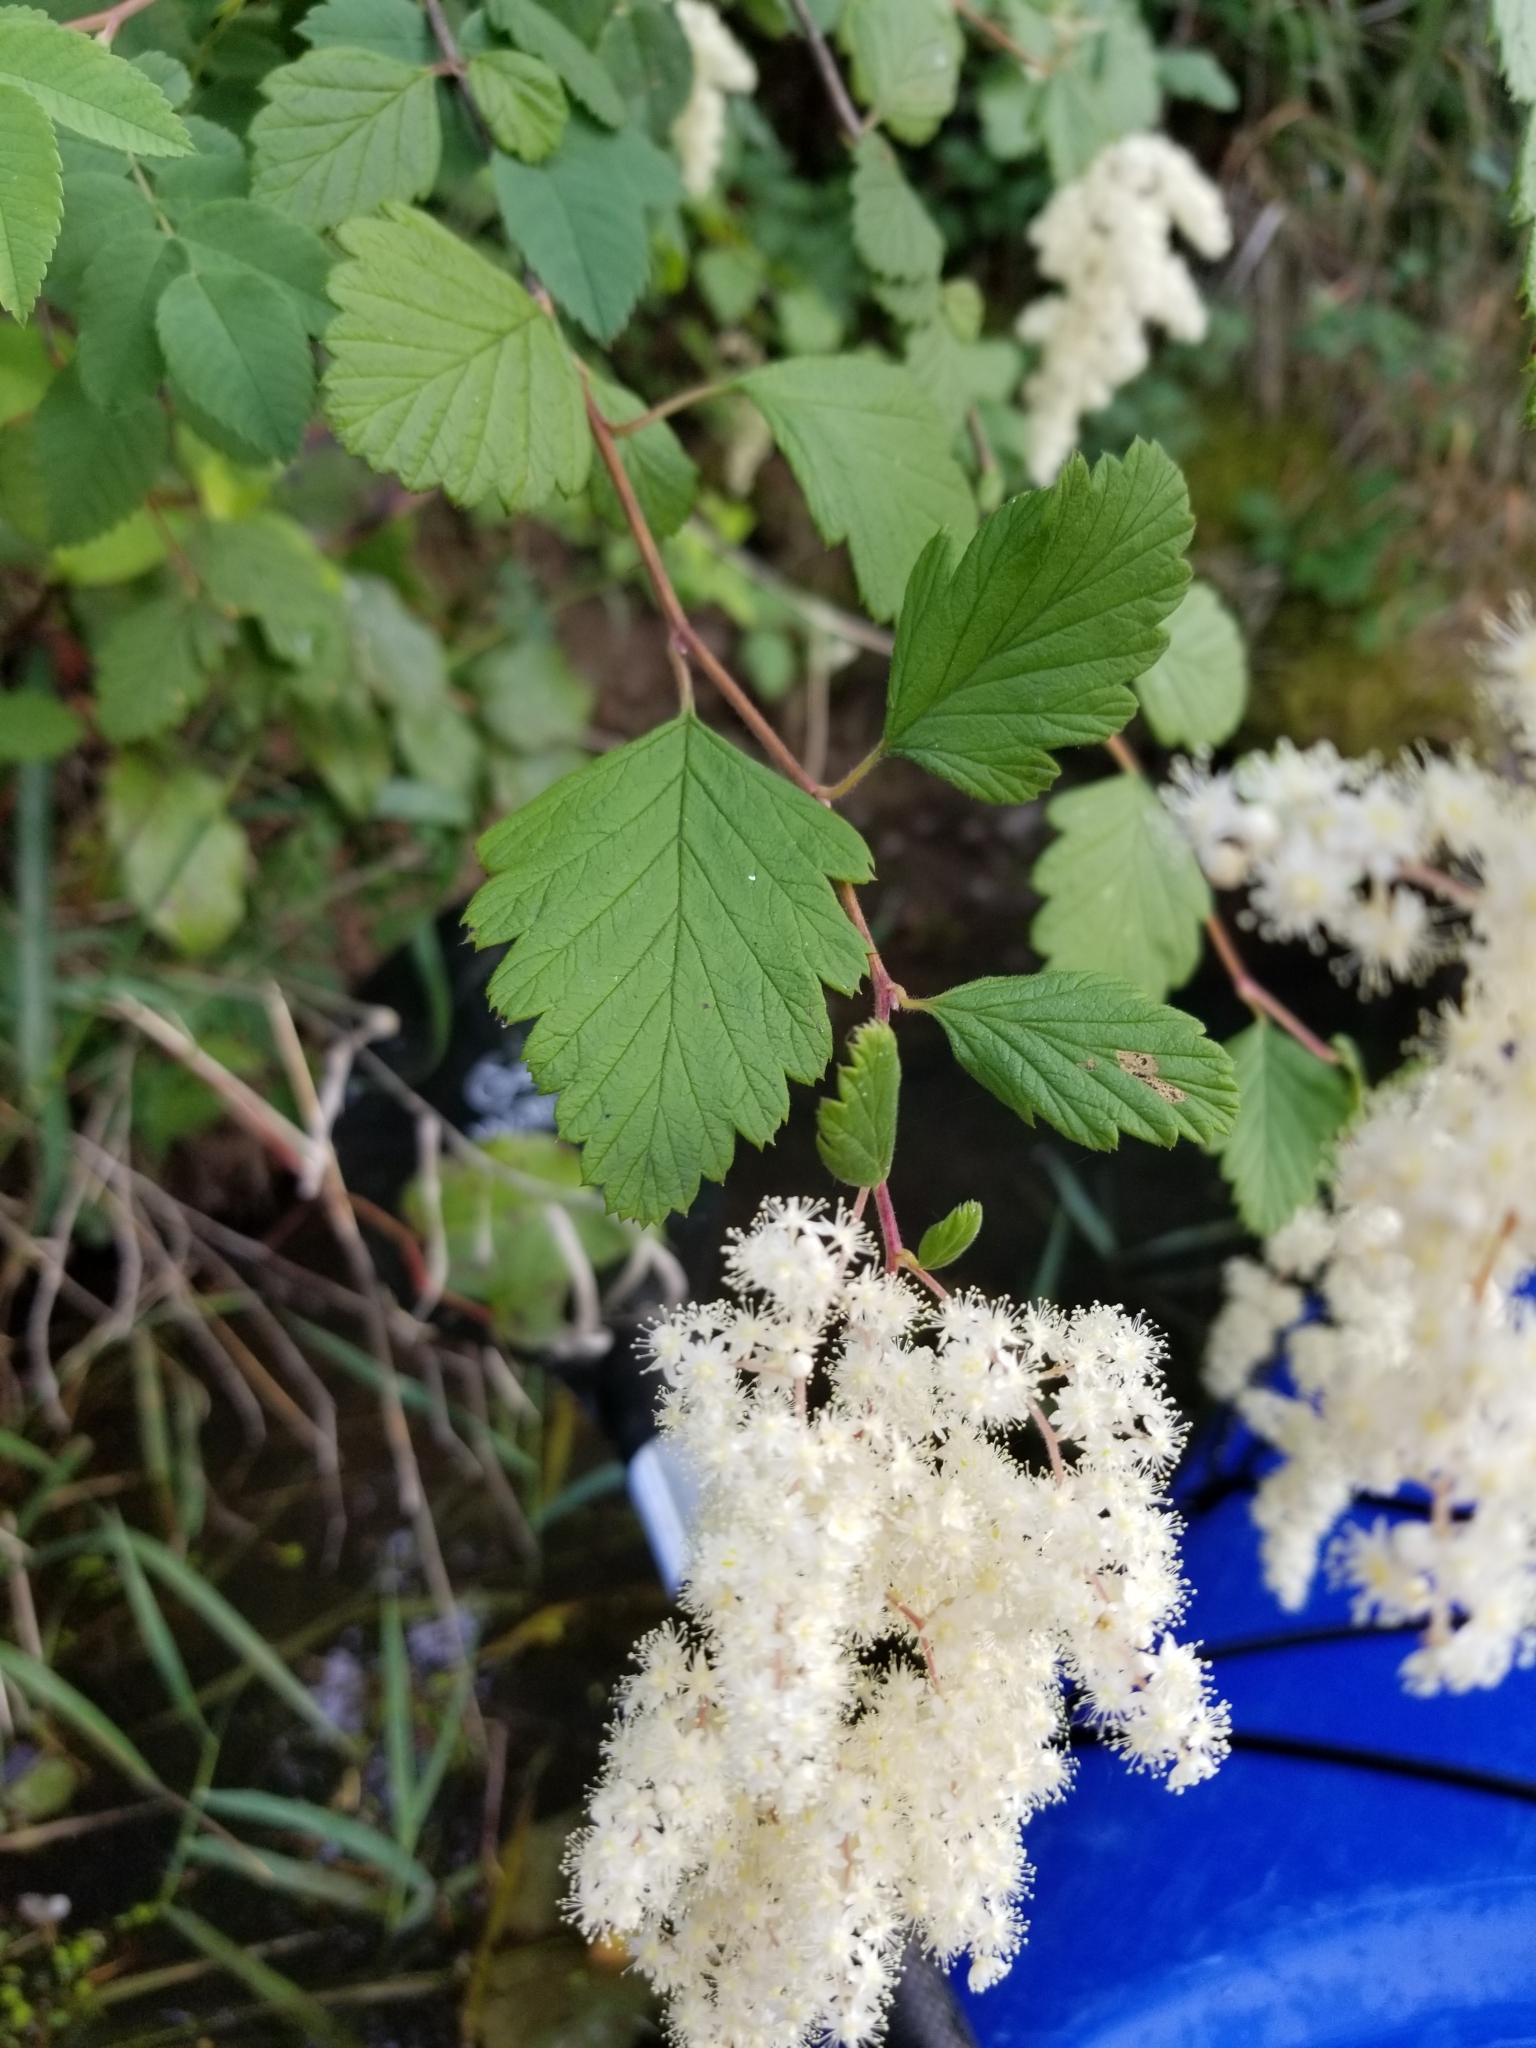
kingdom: Plantae
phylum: Tracheophyta
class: Magnoliopsida
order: Rosales
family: Rosaceae
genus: Holodiscus
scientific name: Holodiscus discolor
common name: Oceanspray
